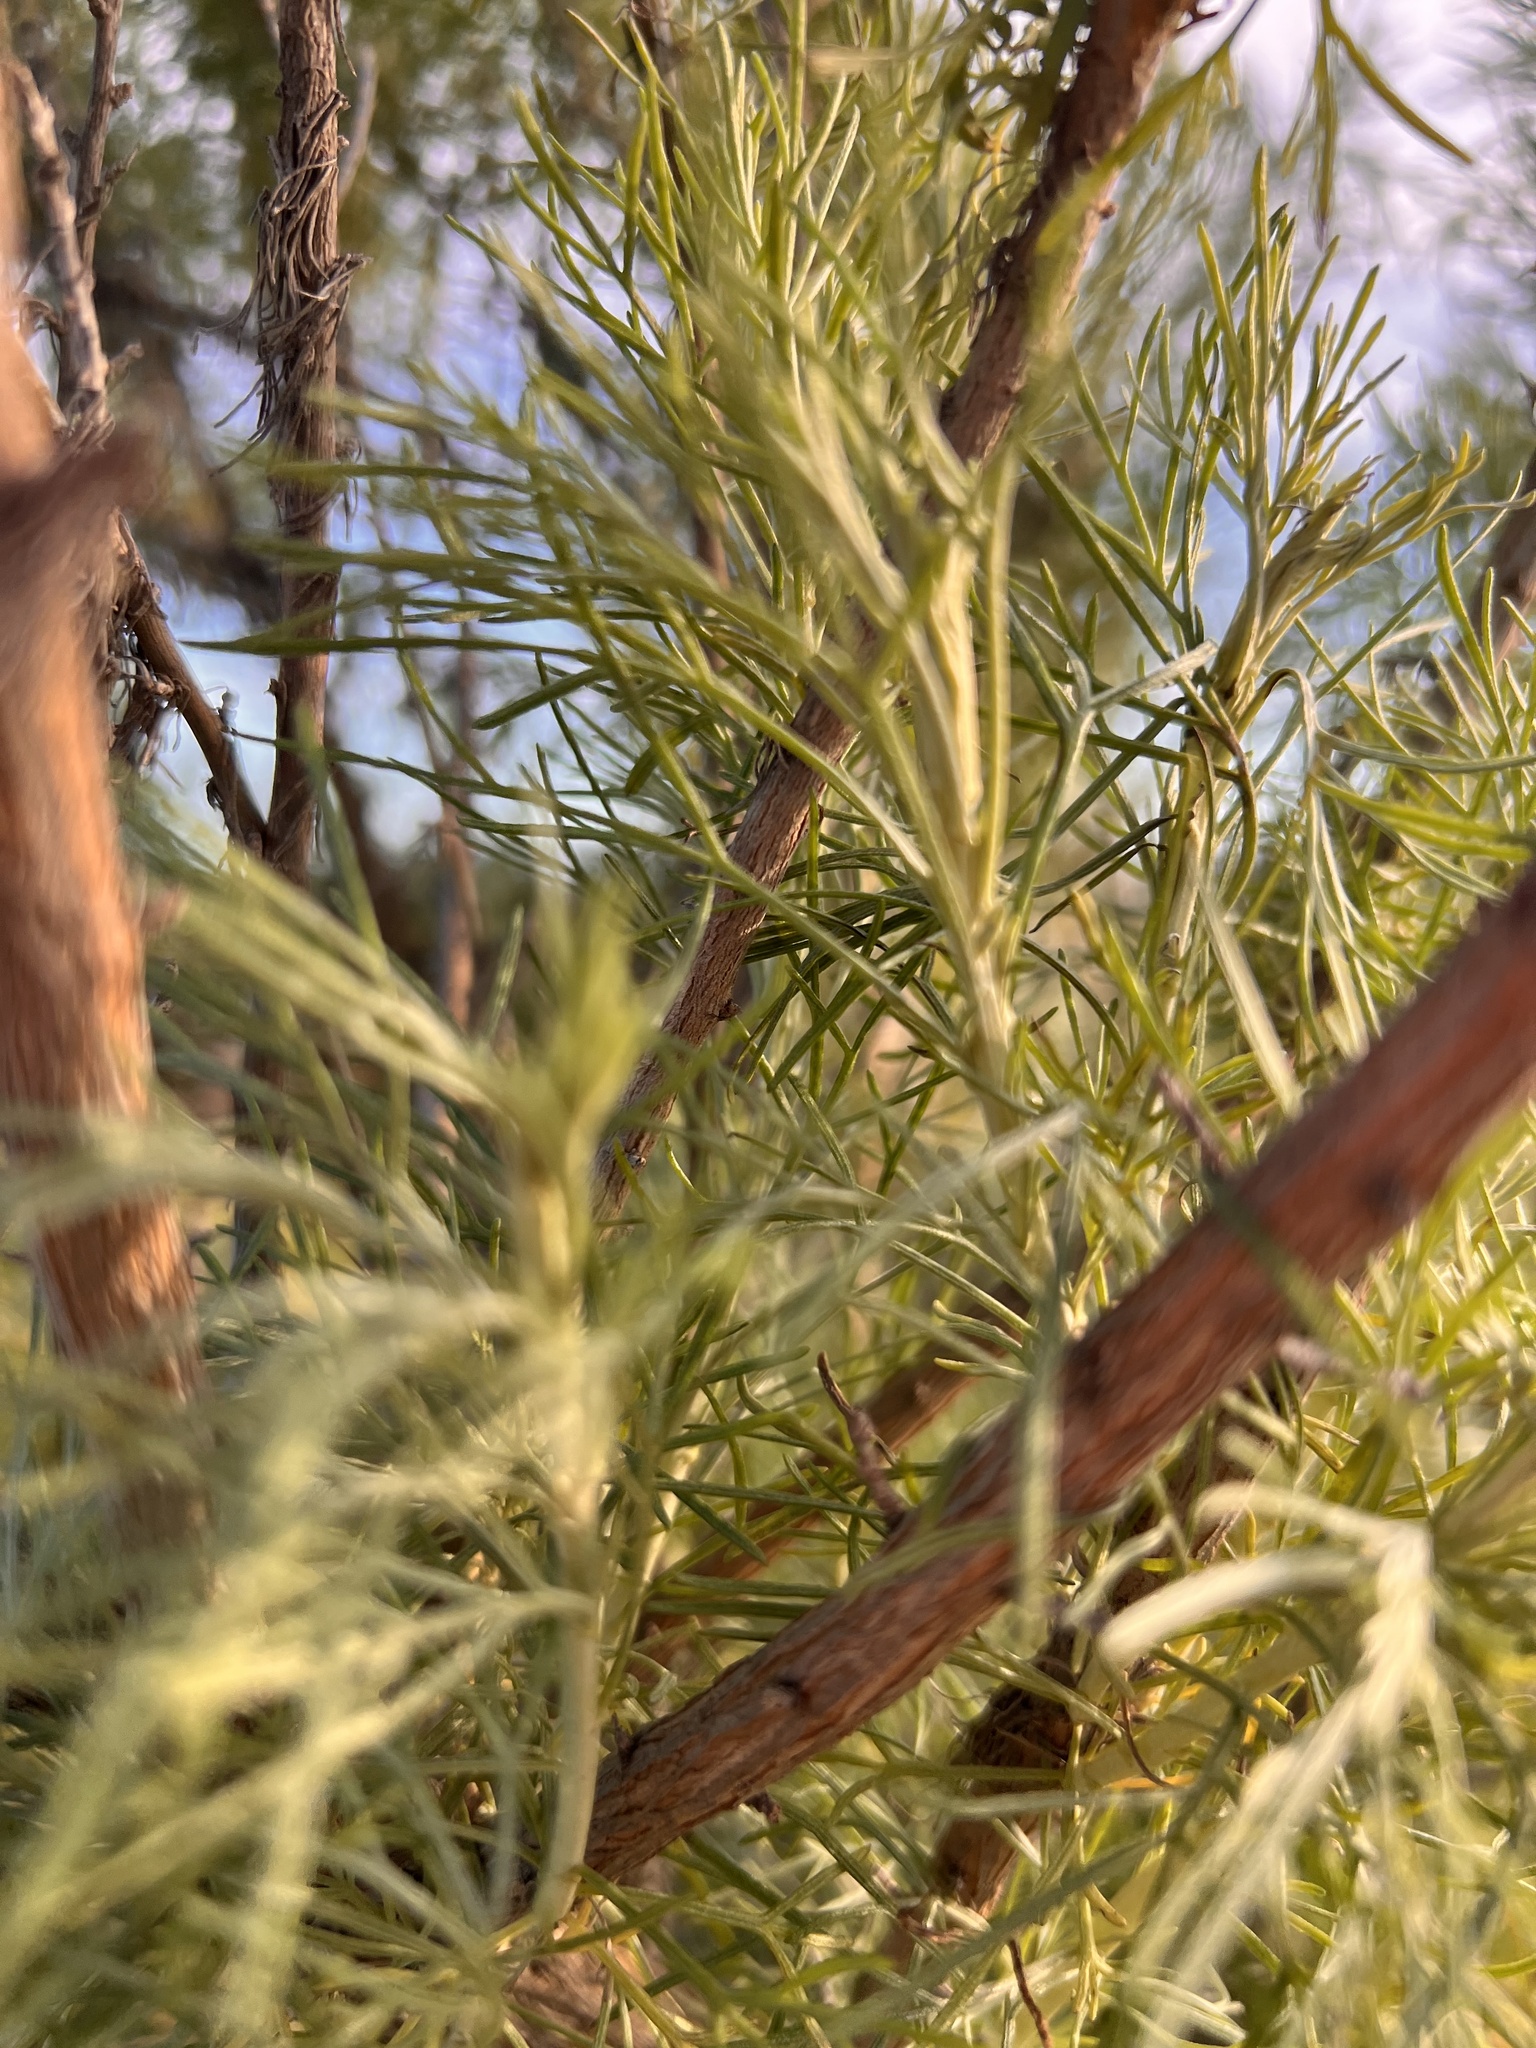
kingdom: Plantae
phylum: Tracheophyta
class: Magnoliopsida
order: Asterales
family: Asteraceae
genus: Artemisia
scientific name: Artemisia californica
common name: California sagebrush
